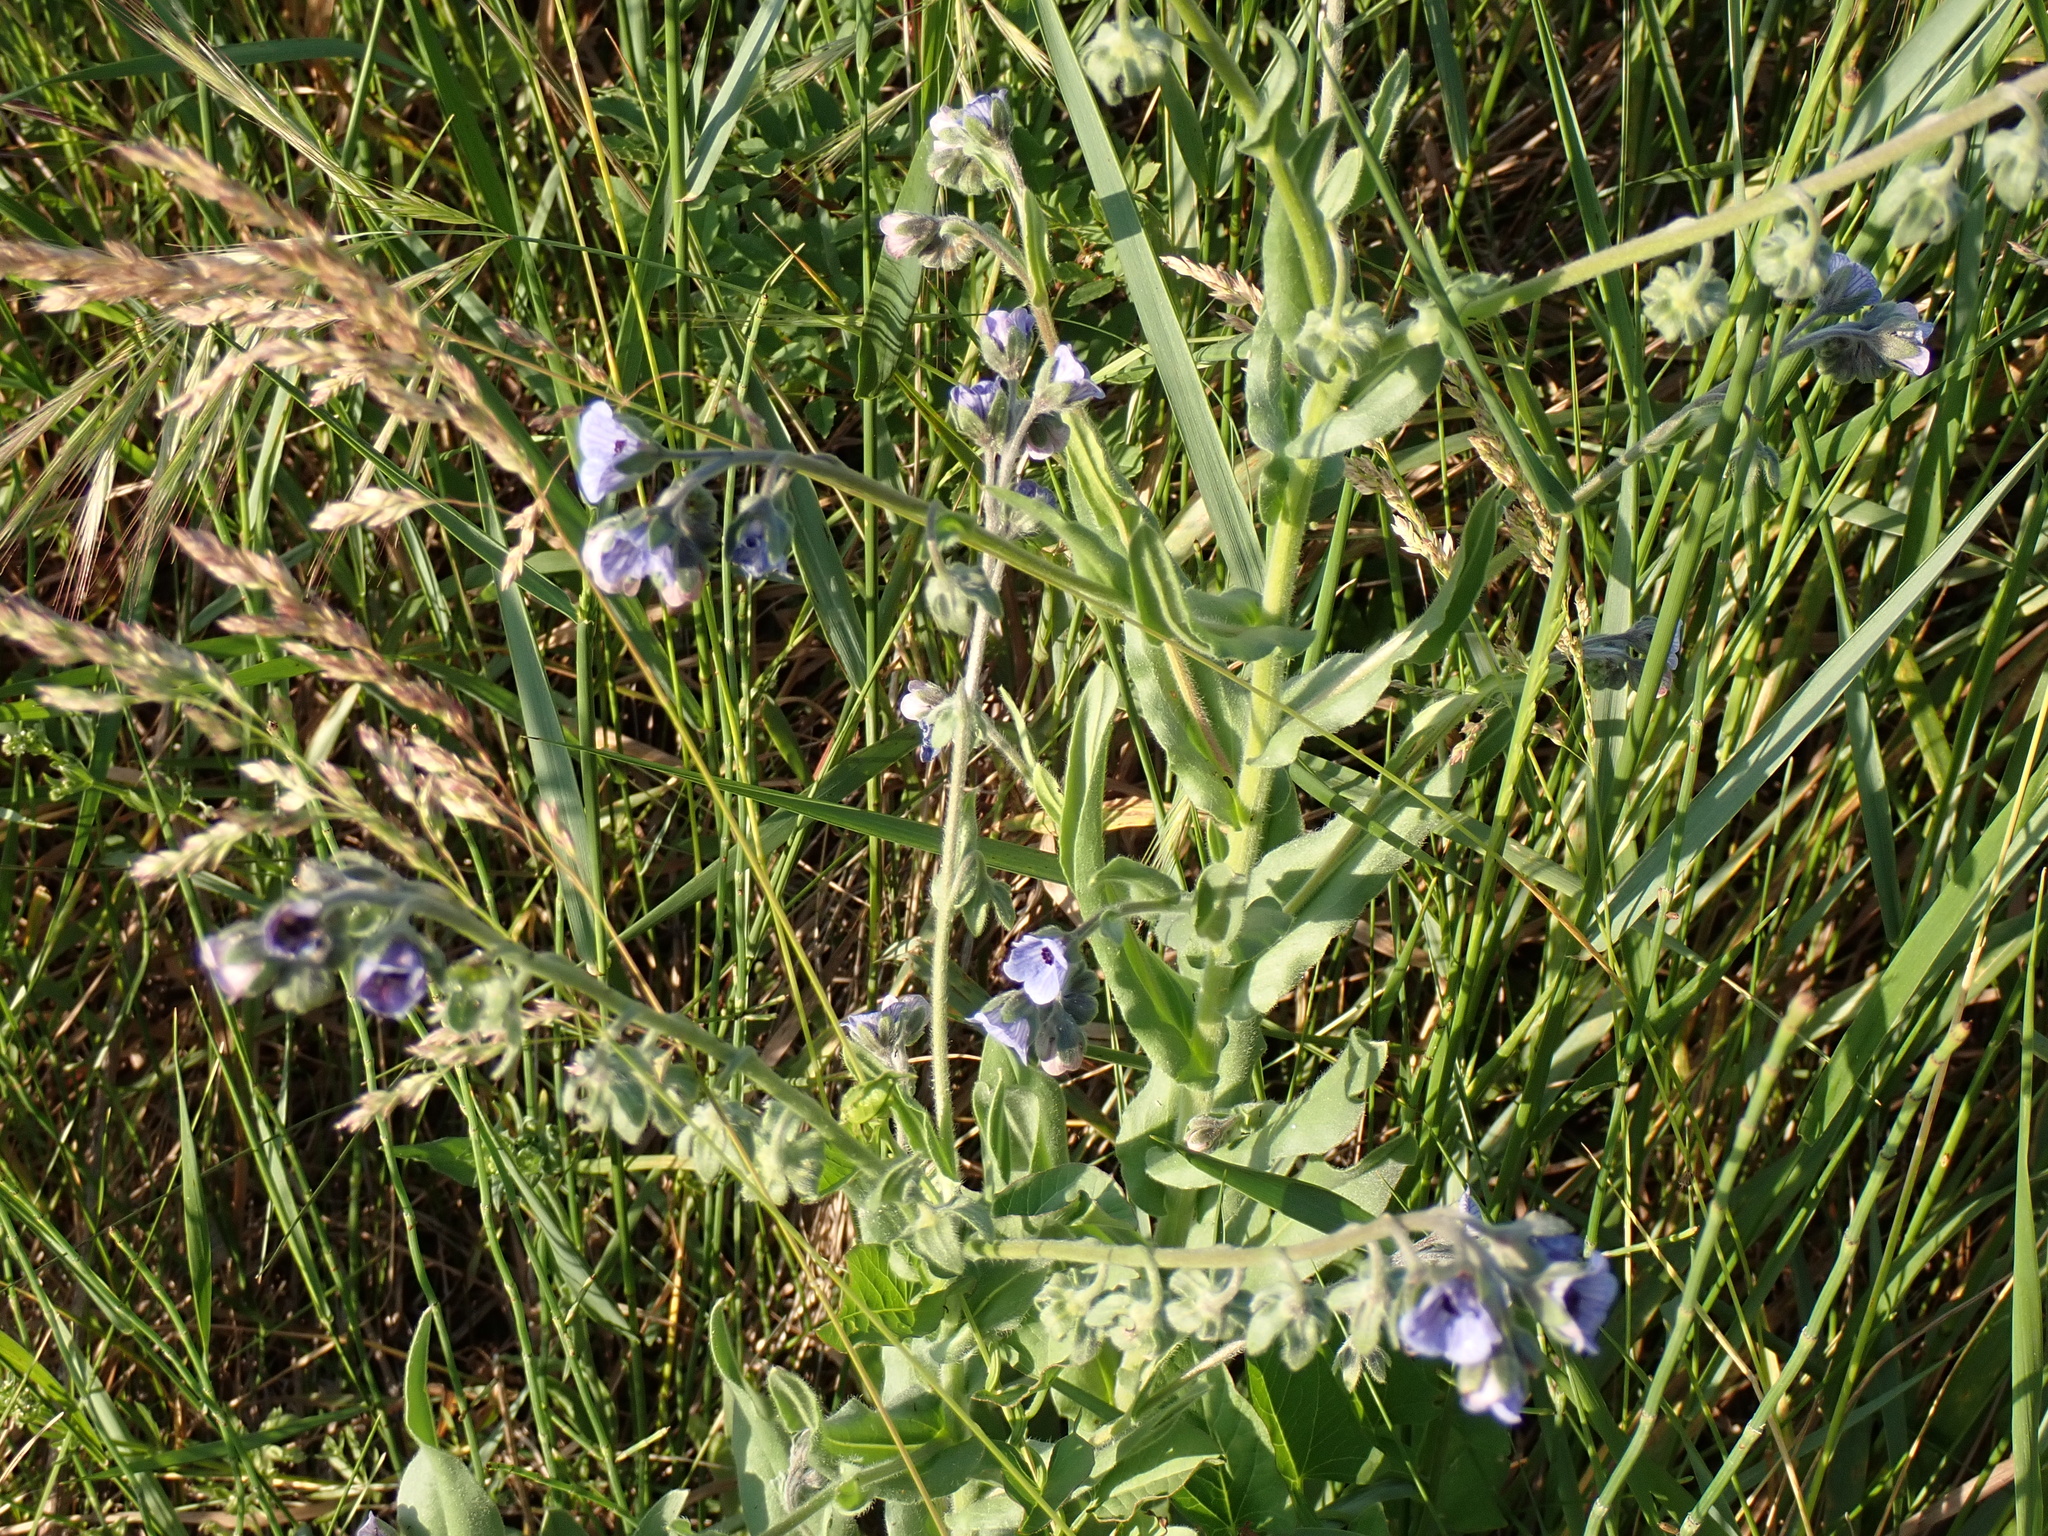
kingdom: Plantae
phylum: Tracheophyta
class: Magnoliopsida
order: Boraginales
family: Boraginaceae
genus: Cynoglossum
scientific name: Cynoglossum creticum
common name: Blue hound's tongue
